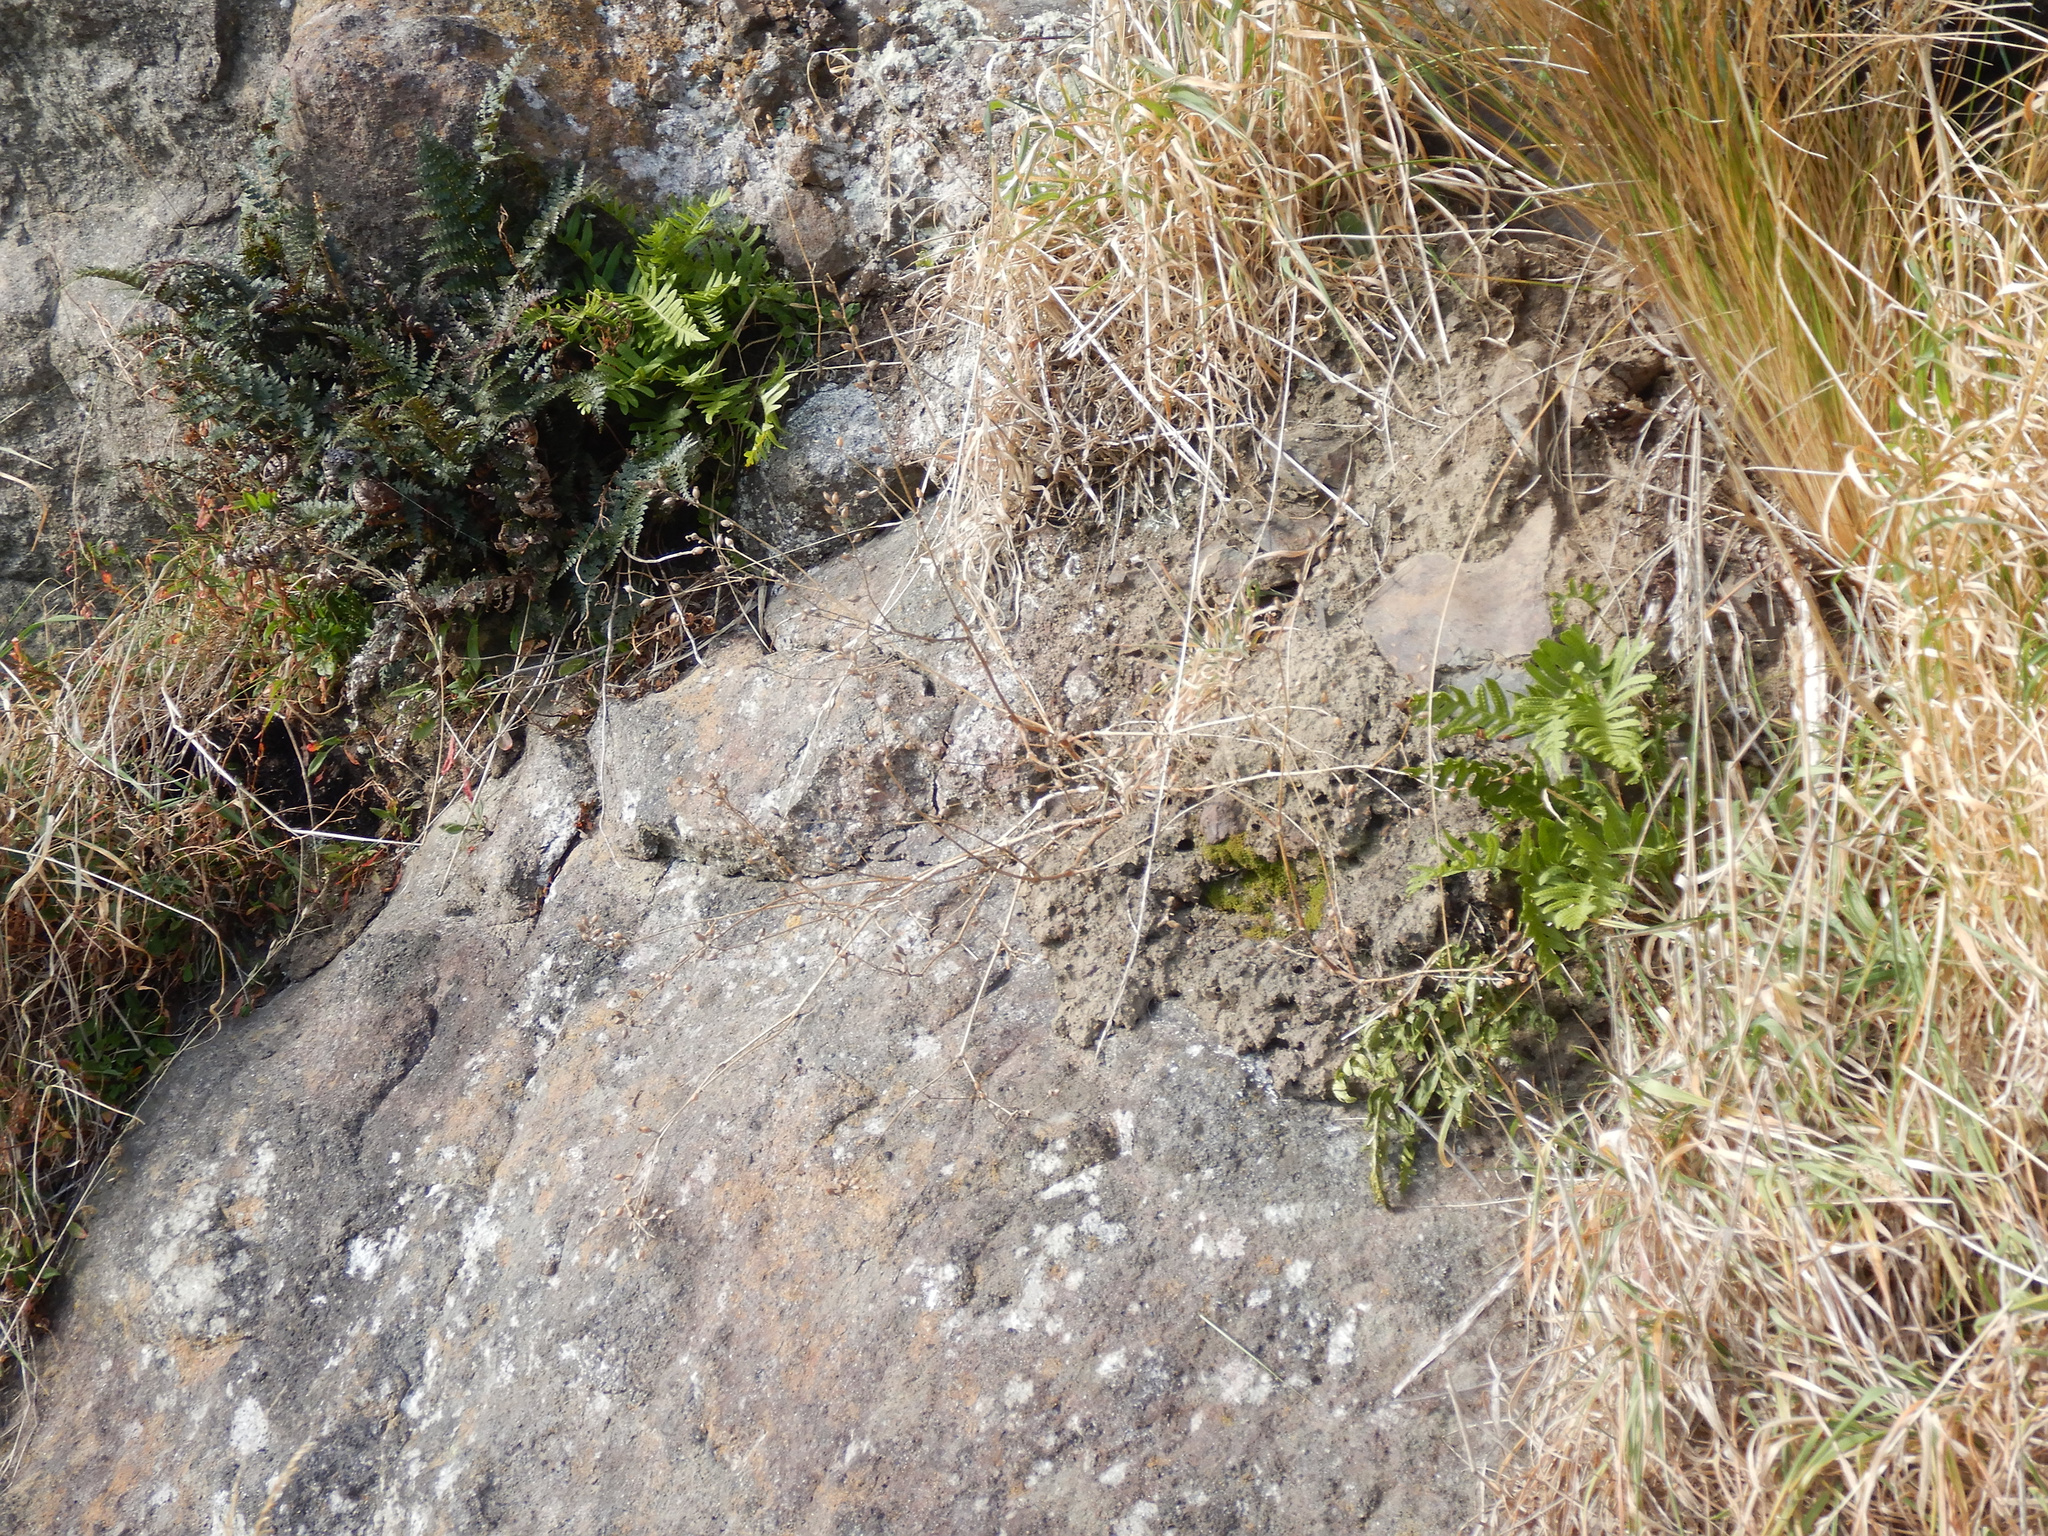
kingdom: Plantae
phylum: Tracheophyta
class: Polypodiopsida
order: Polypodiales
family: Polypodiaceae
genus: Polypodium
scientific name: Polypodium vulgare
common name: Common polypody
